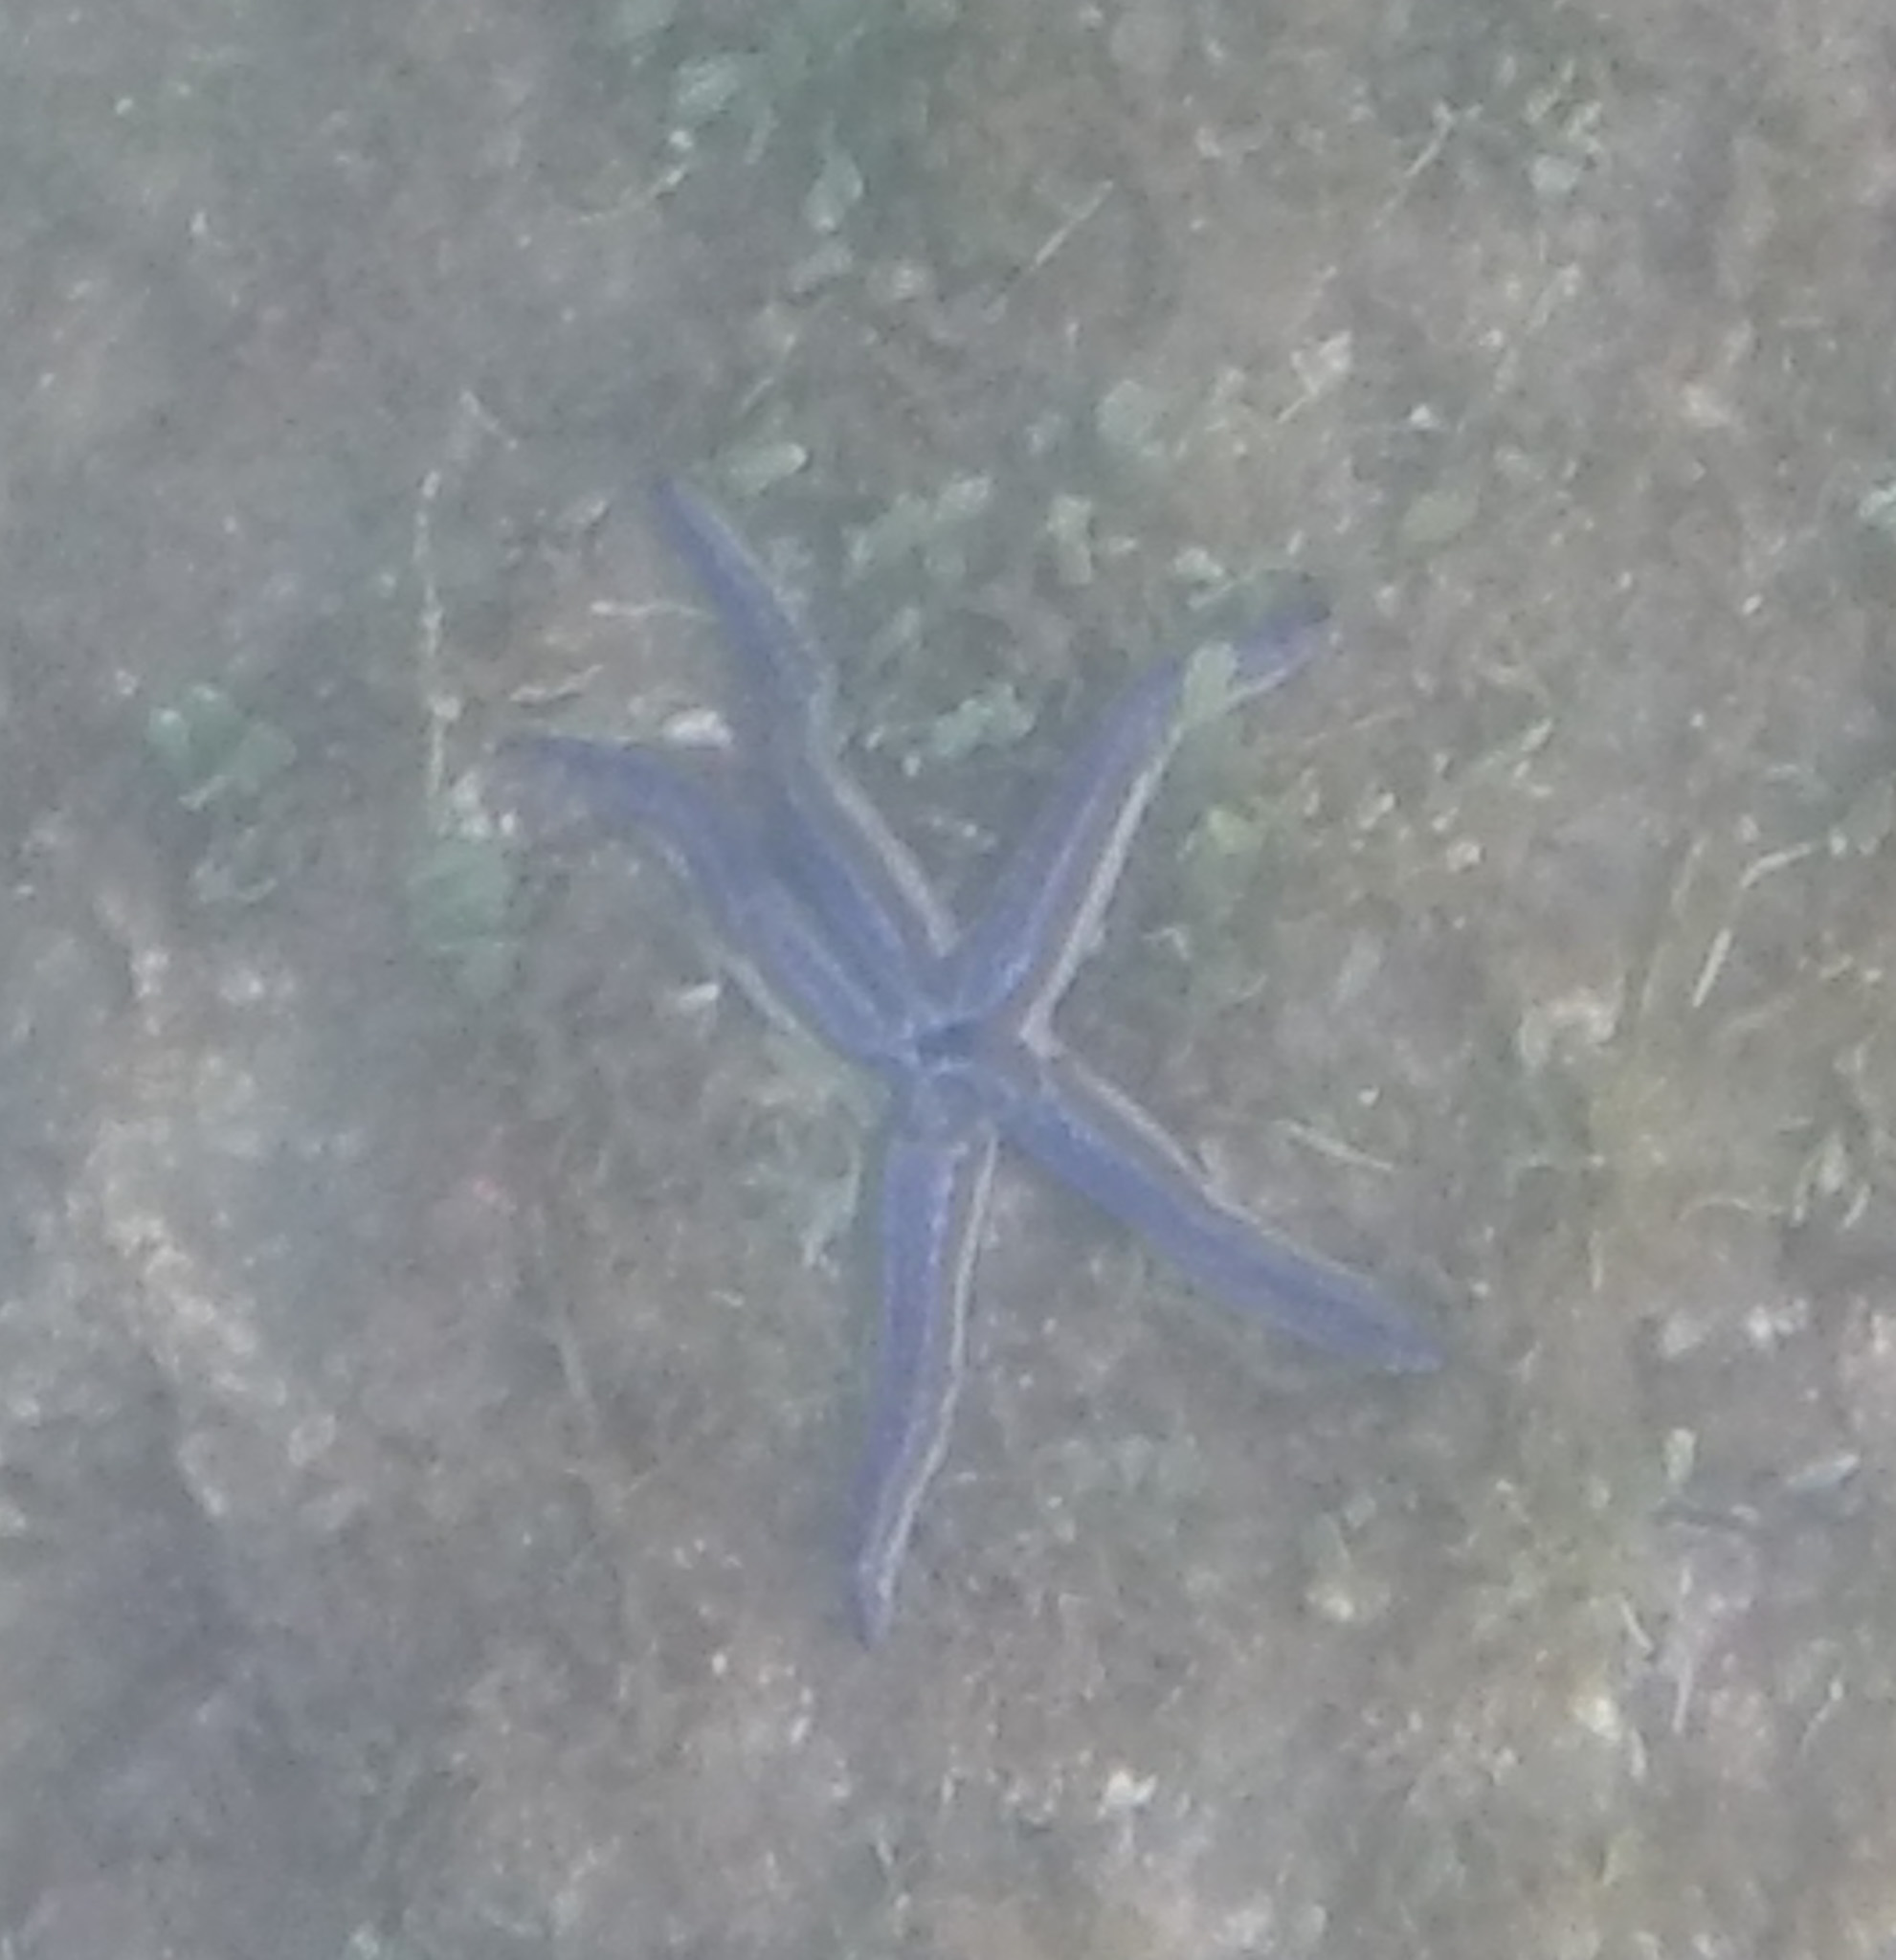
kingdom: Animalia
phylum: Echinodermata
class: Asteroidea
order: Valvatida
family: Ophidiasteridae
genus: Phataria
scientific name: Phataria unifascialis
